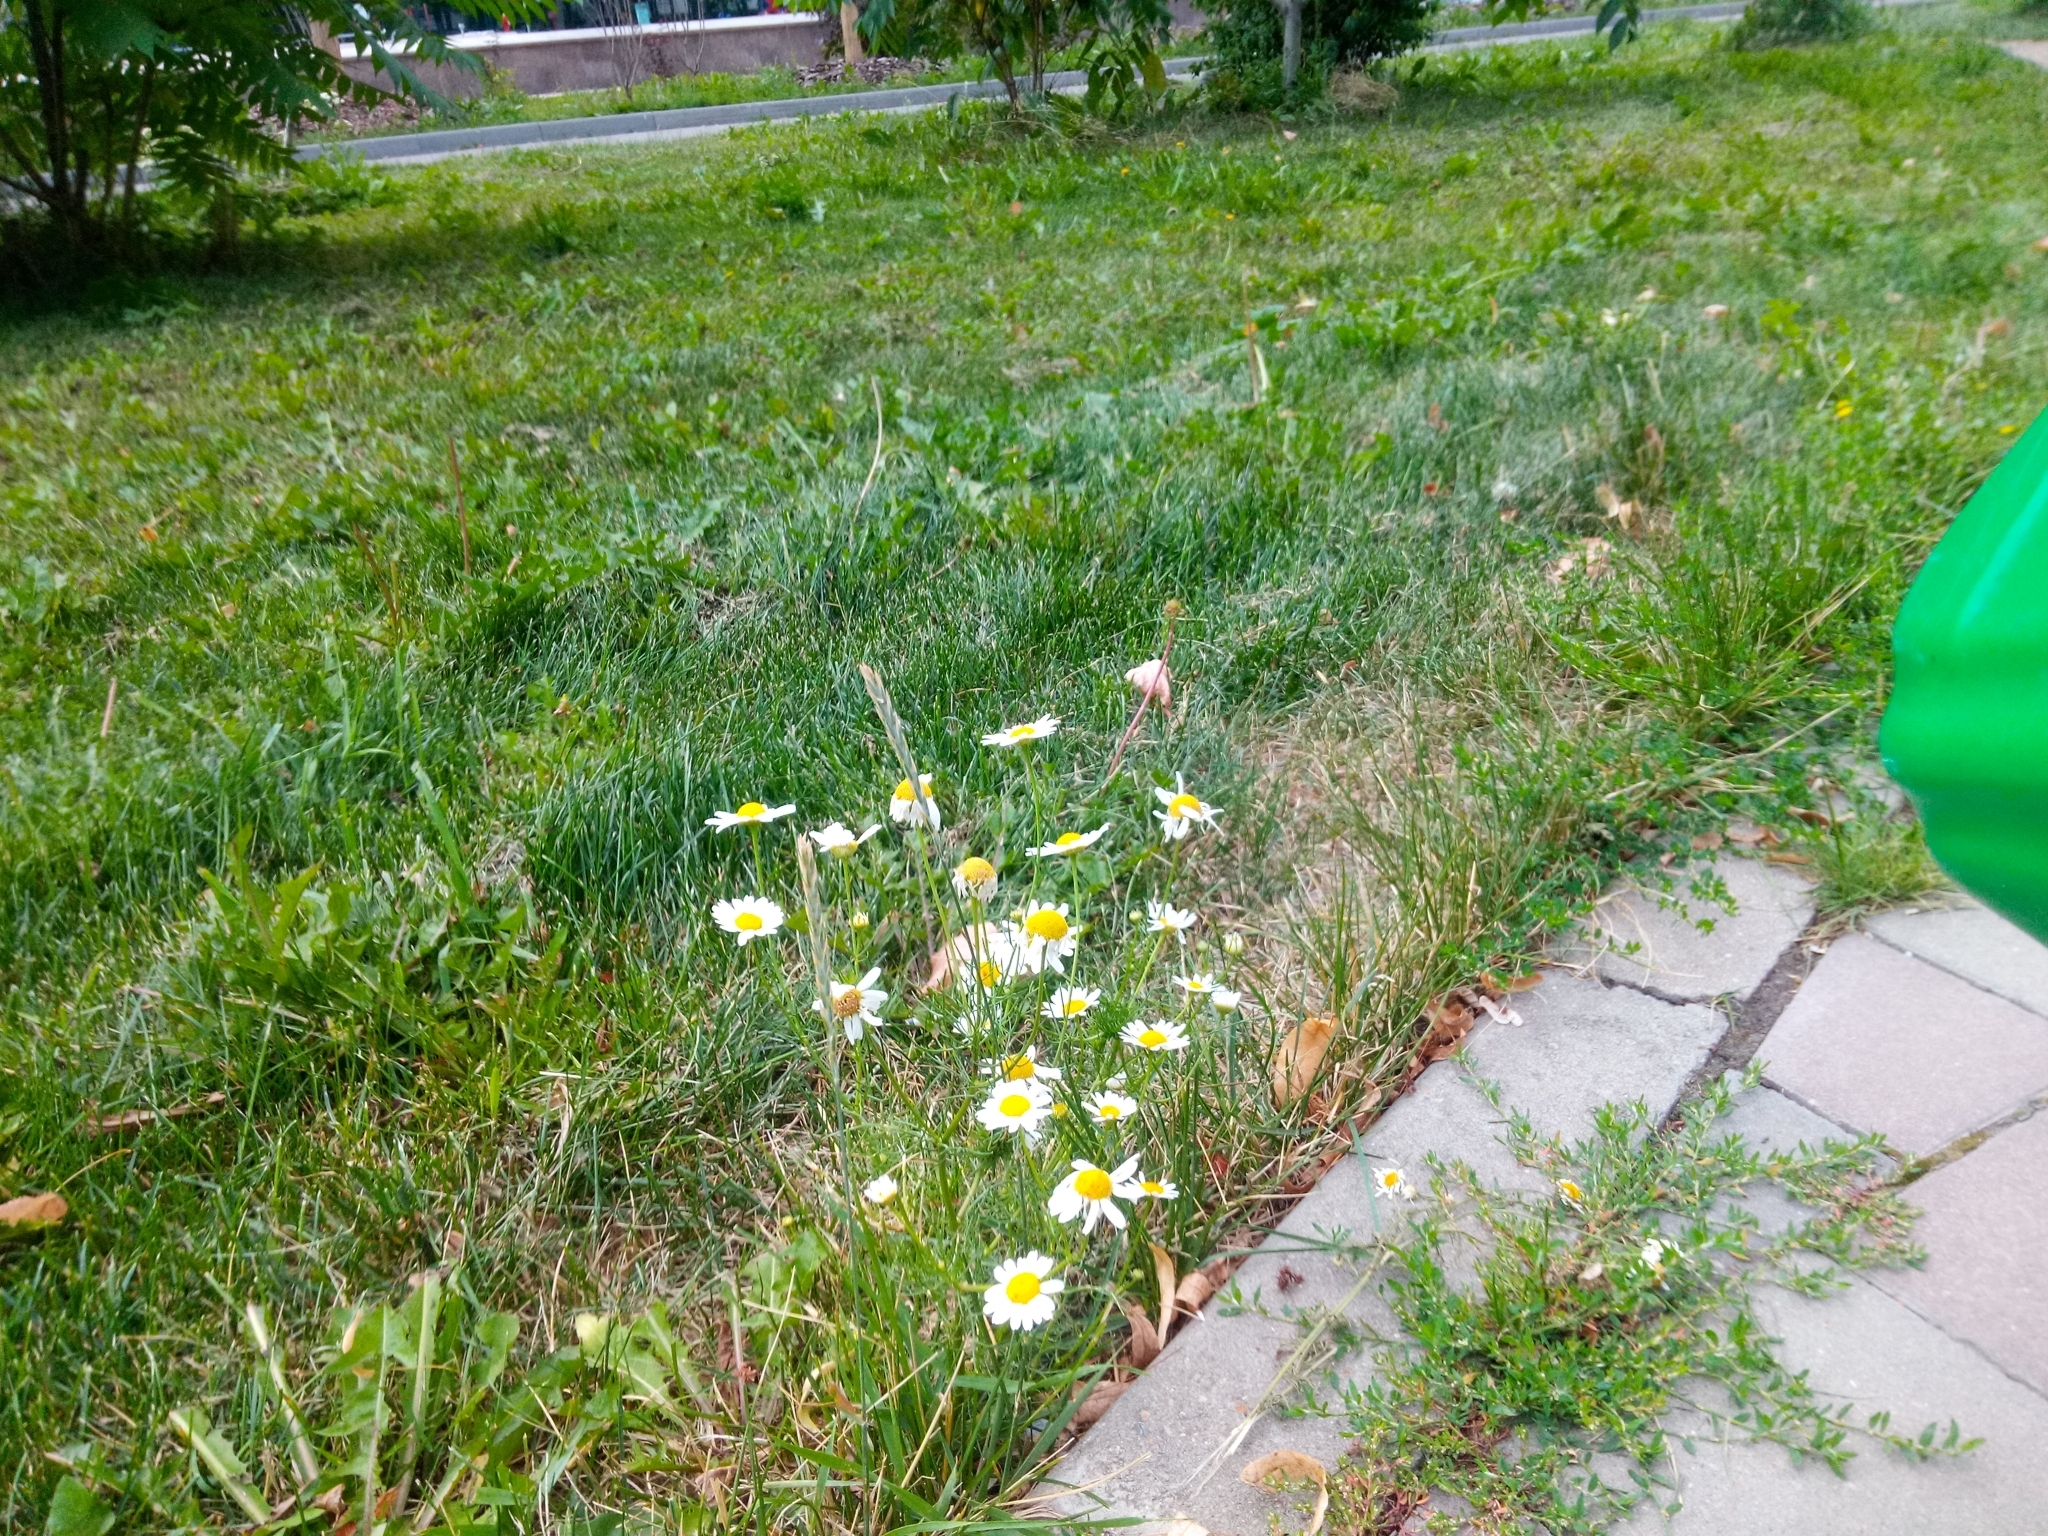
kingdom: Plantae
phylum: Tracheophyta
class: Magnoliopsida
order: Asterales
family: Asteraceae
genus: Tripleurospermum
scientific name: Tripleurospermum inodorum
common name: Scentless mayweed
